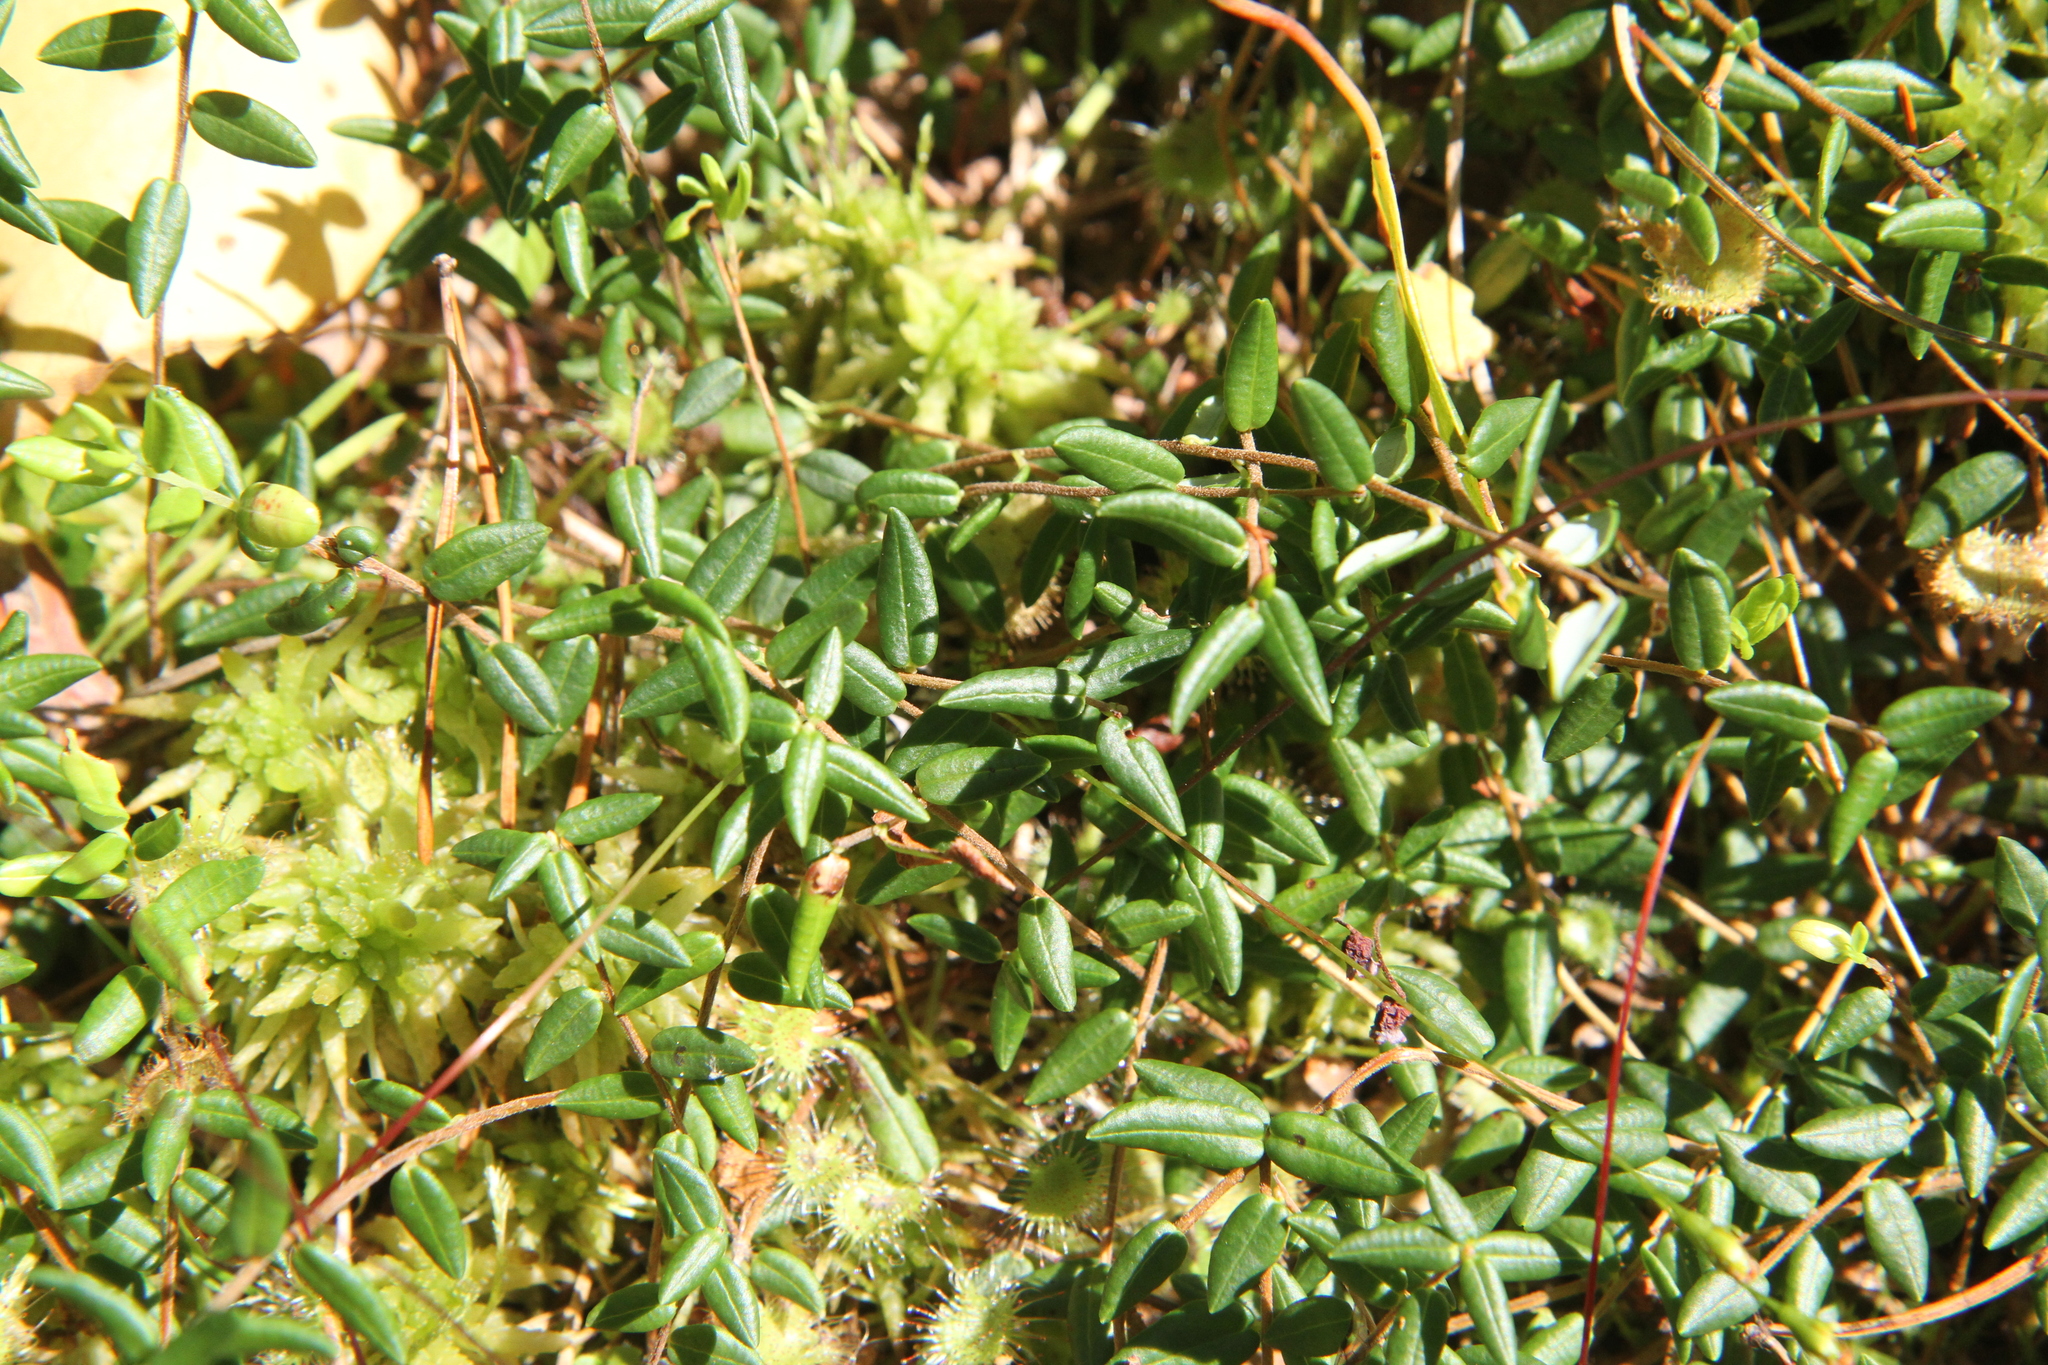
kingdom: Plantae
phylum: Tracheophyta
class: Magnoliopsida
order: Ericales
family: Ericaceae
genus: Vaccinium
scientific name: Vaccinium oxycoccos
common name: Cranberry
